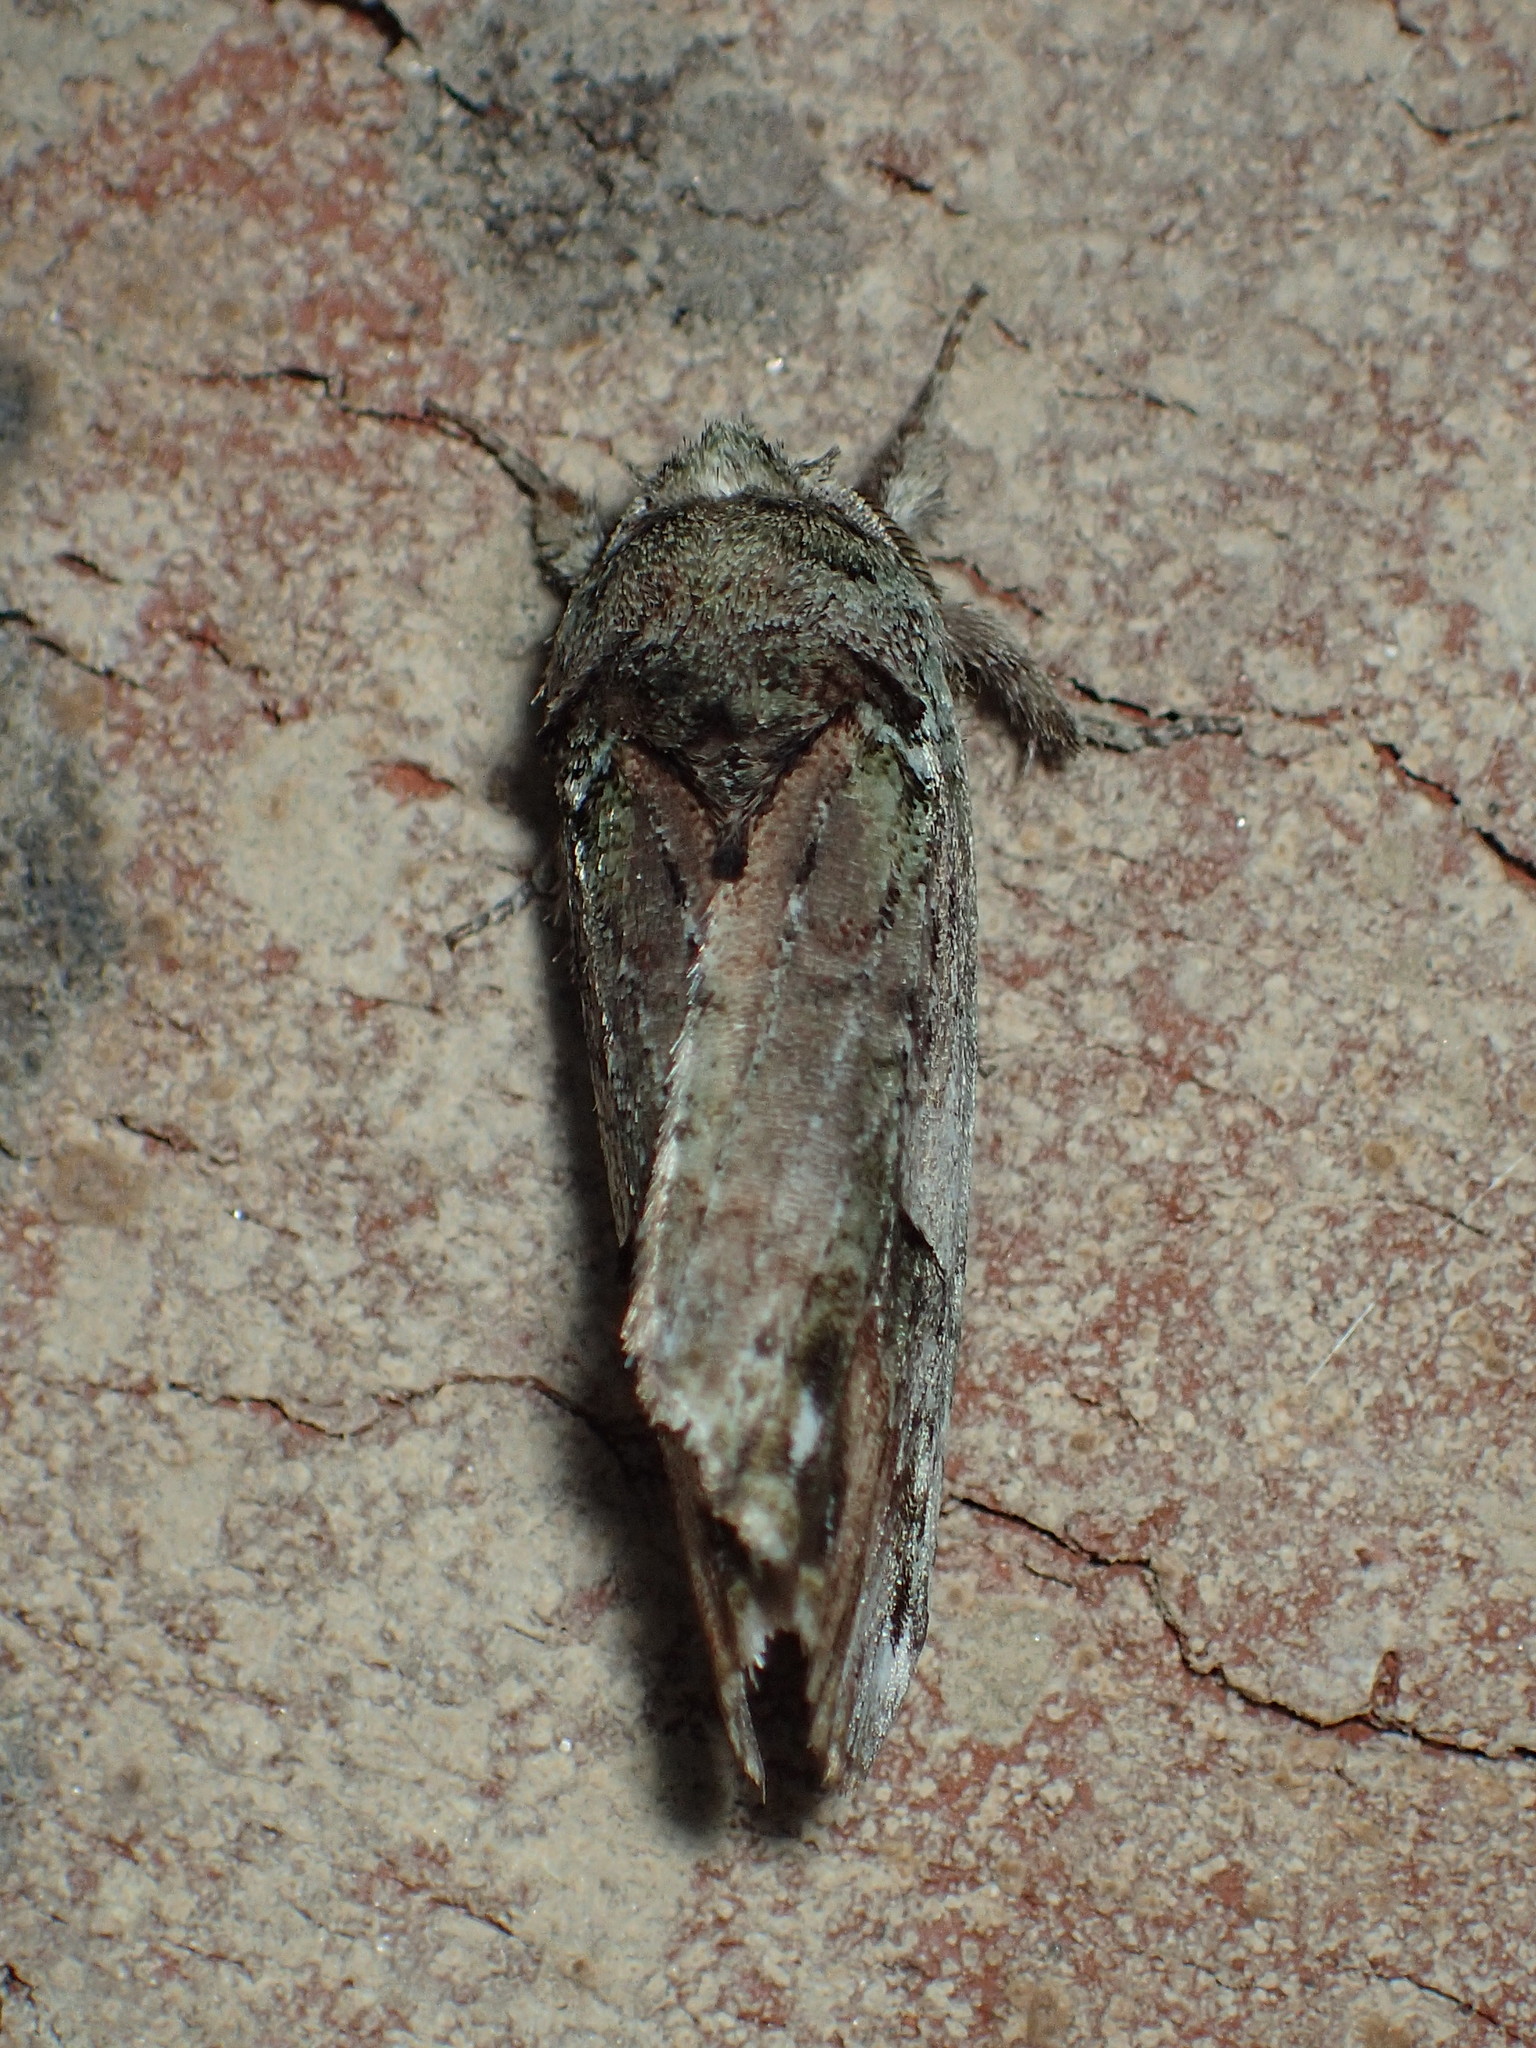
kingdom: Animalia
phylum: Arthropoda
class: Insecta
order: Lepidoptera
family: Notodontidae
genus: Schizura
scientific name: Schizura
